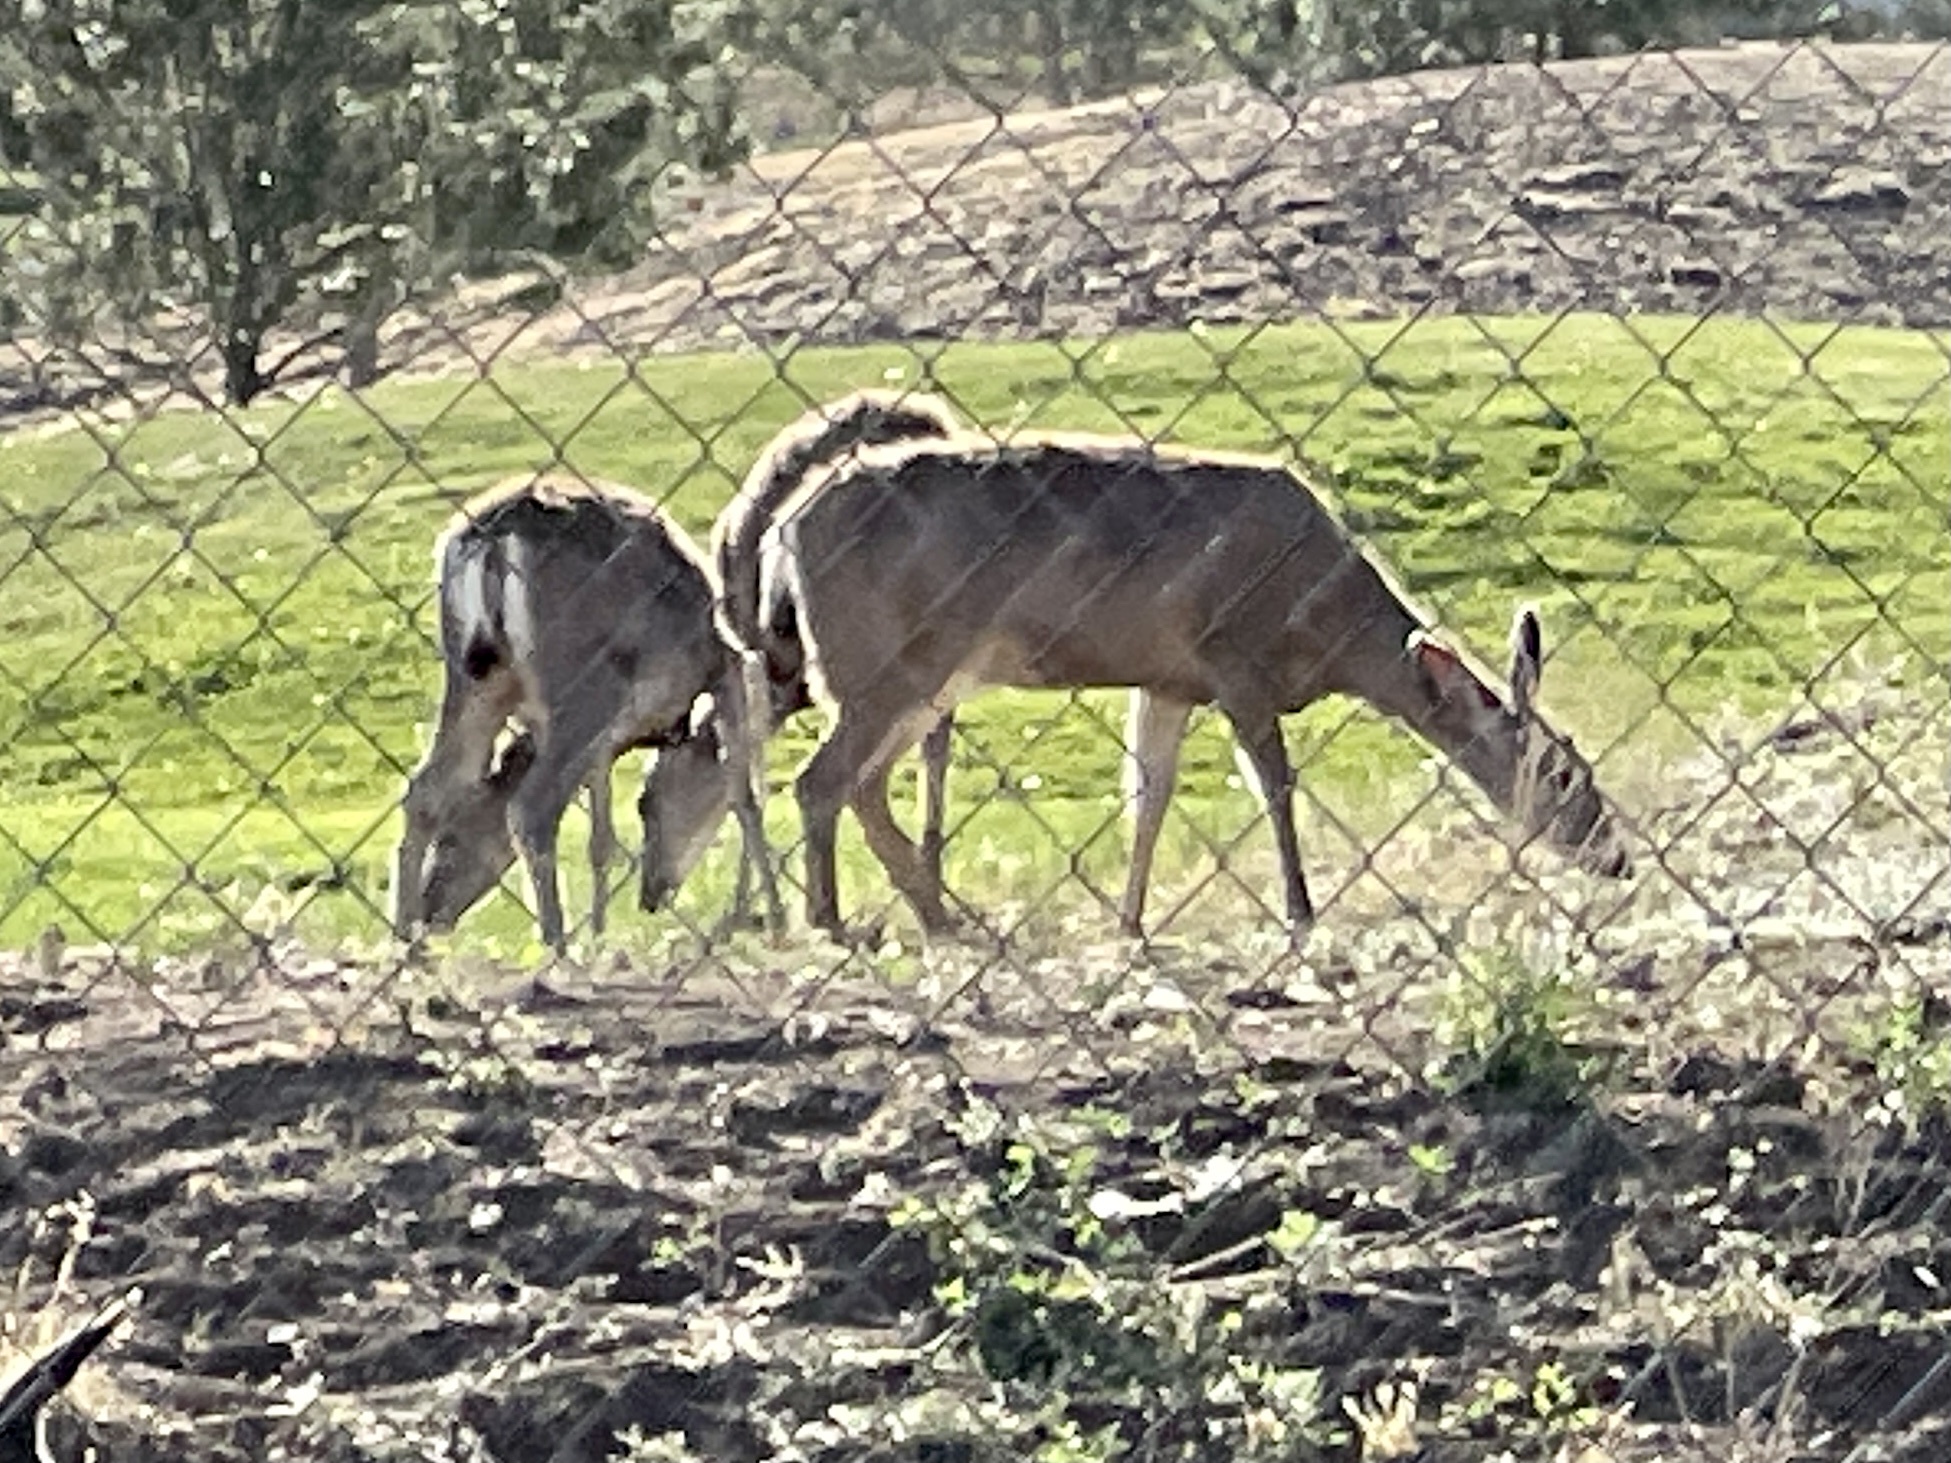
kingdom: Animalia
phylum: Chordata
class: Mammalia
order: Artiodactyla
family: Cervidae
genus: Odocoileus
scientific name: Odocoileus hemionus
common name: Mule deer
